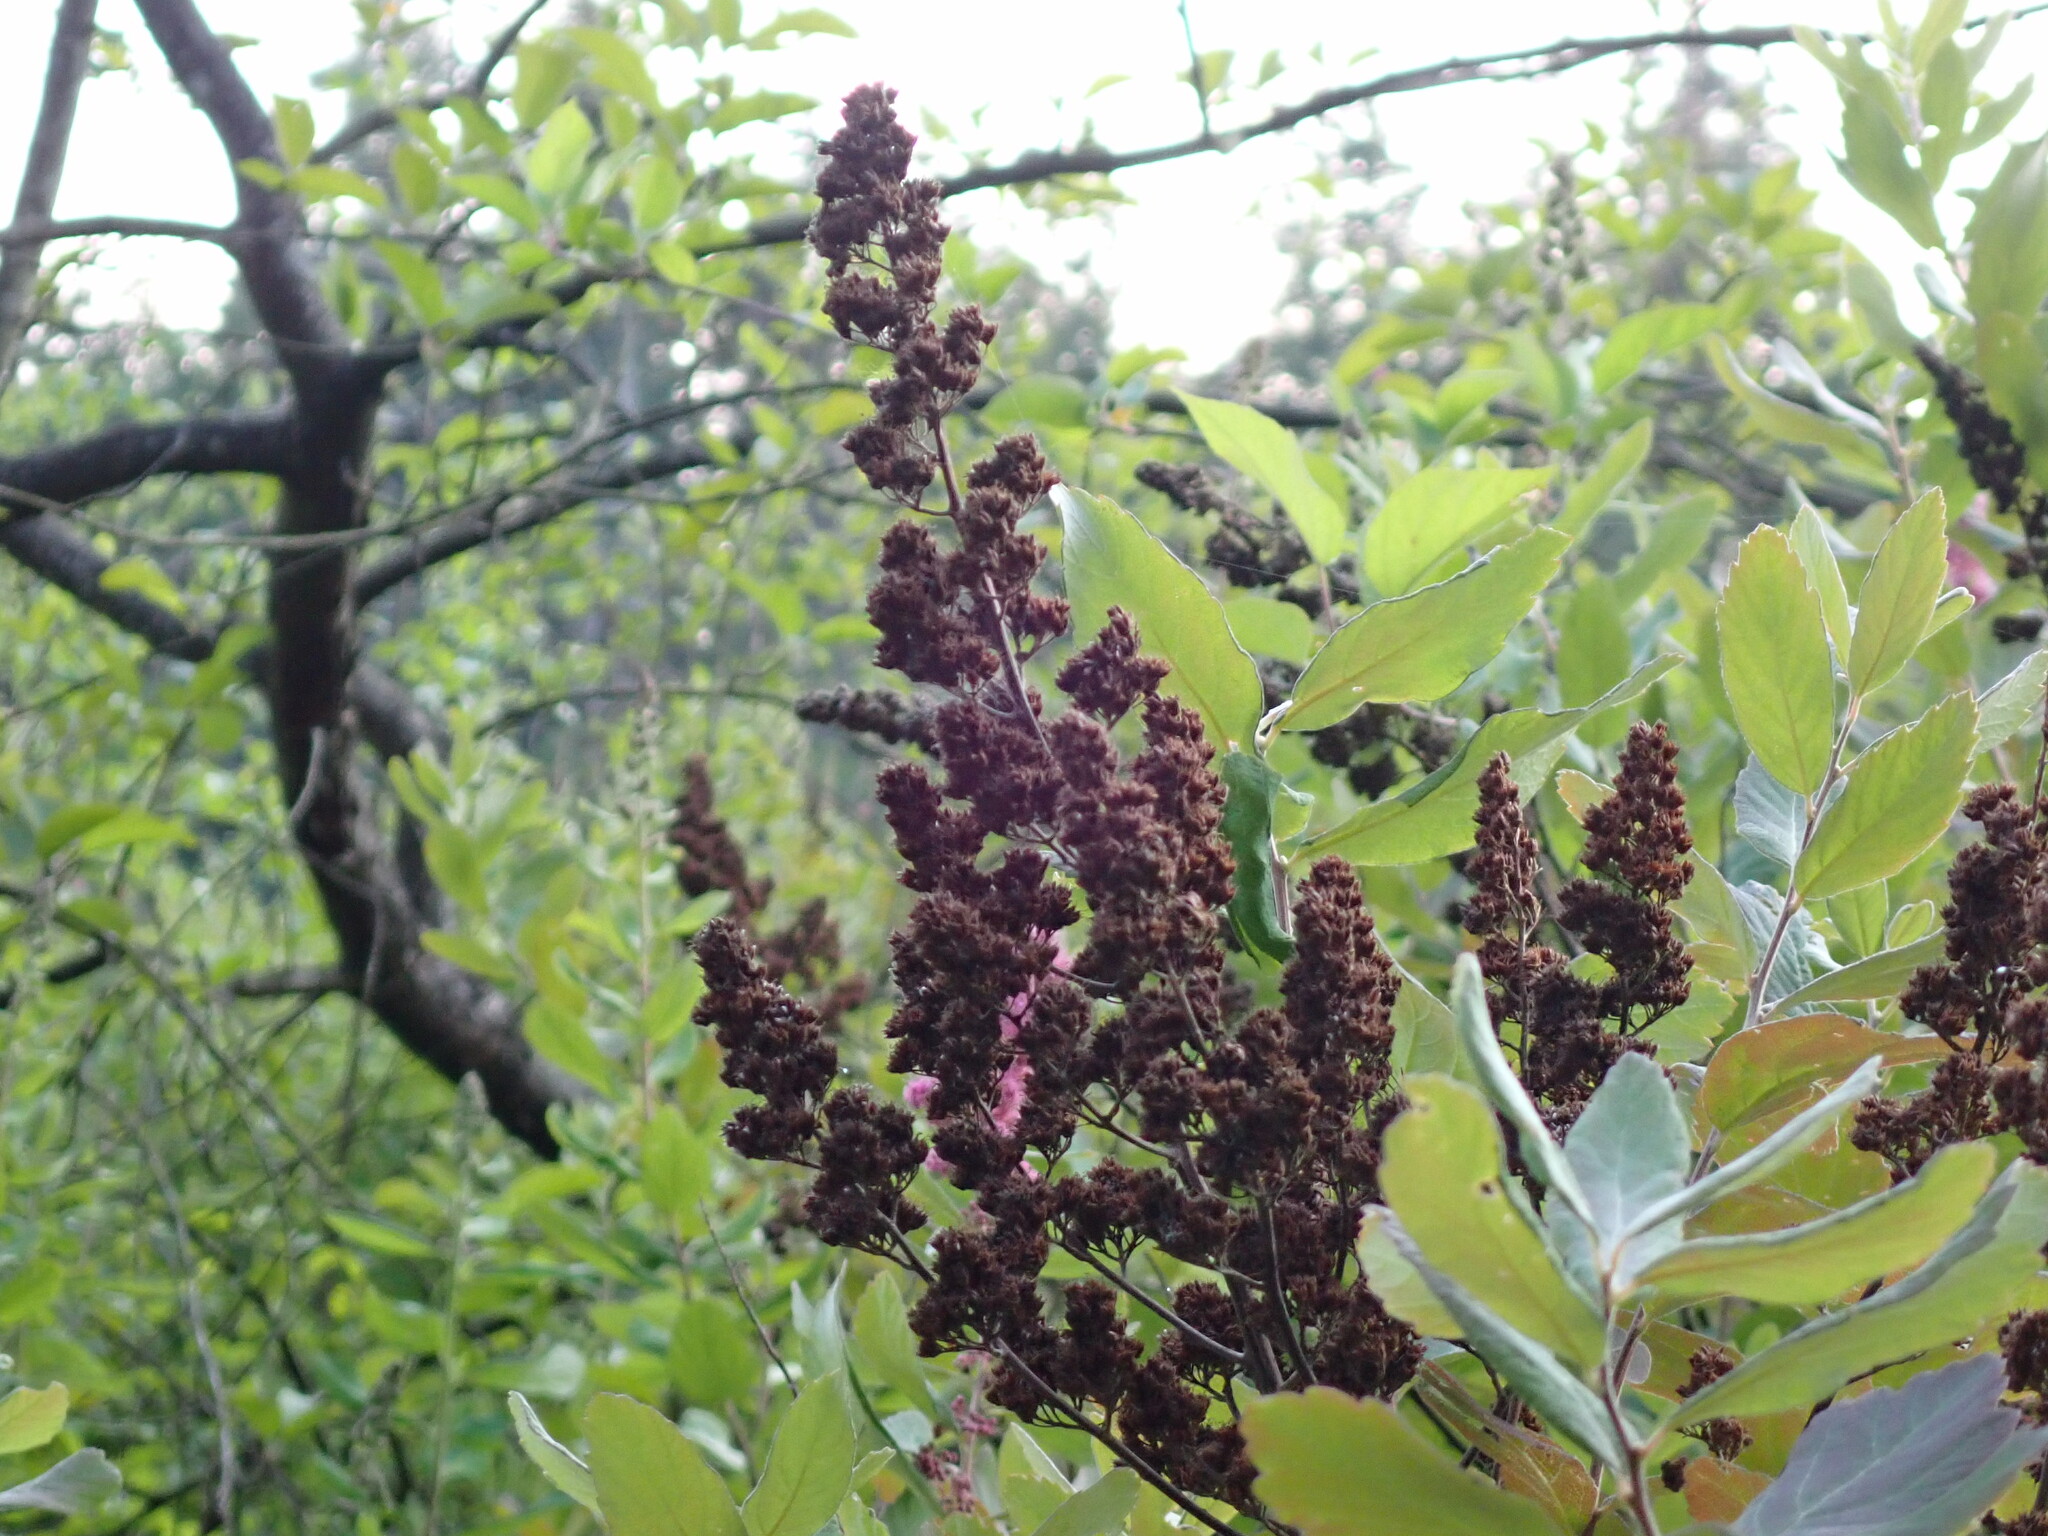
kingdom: Plantae
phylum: Tracheophyta
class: Magnoliopsida
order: Rosales
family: Rosaceae
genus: Spiraea
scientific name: Spiraea douglasii
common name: Steeplebush
